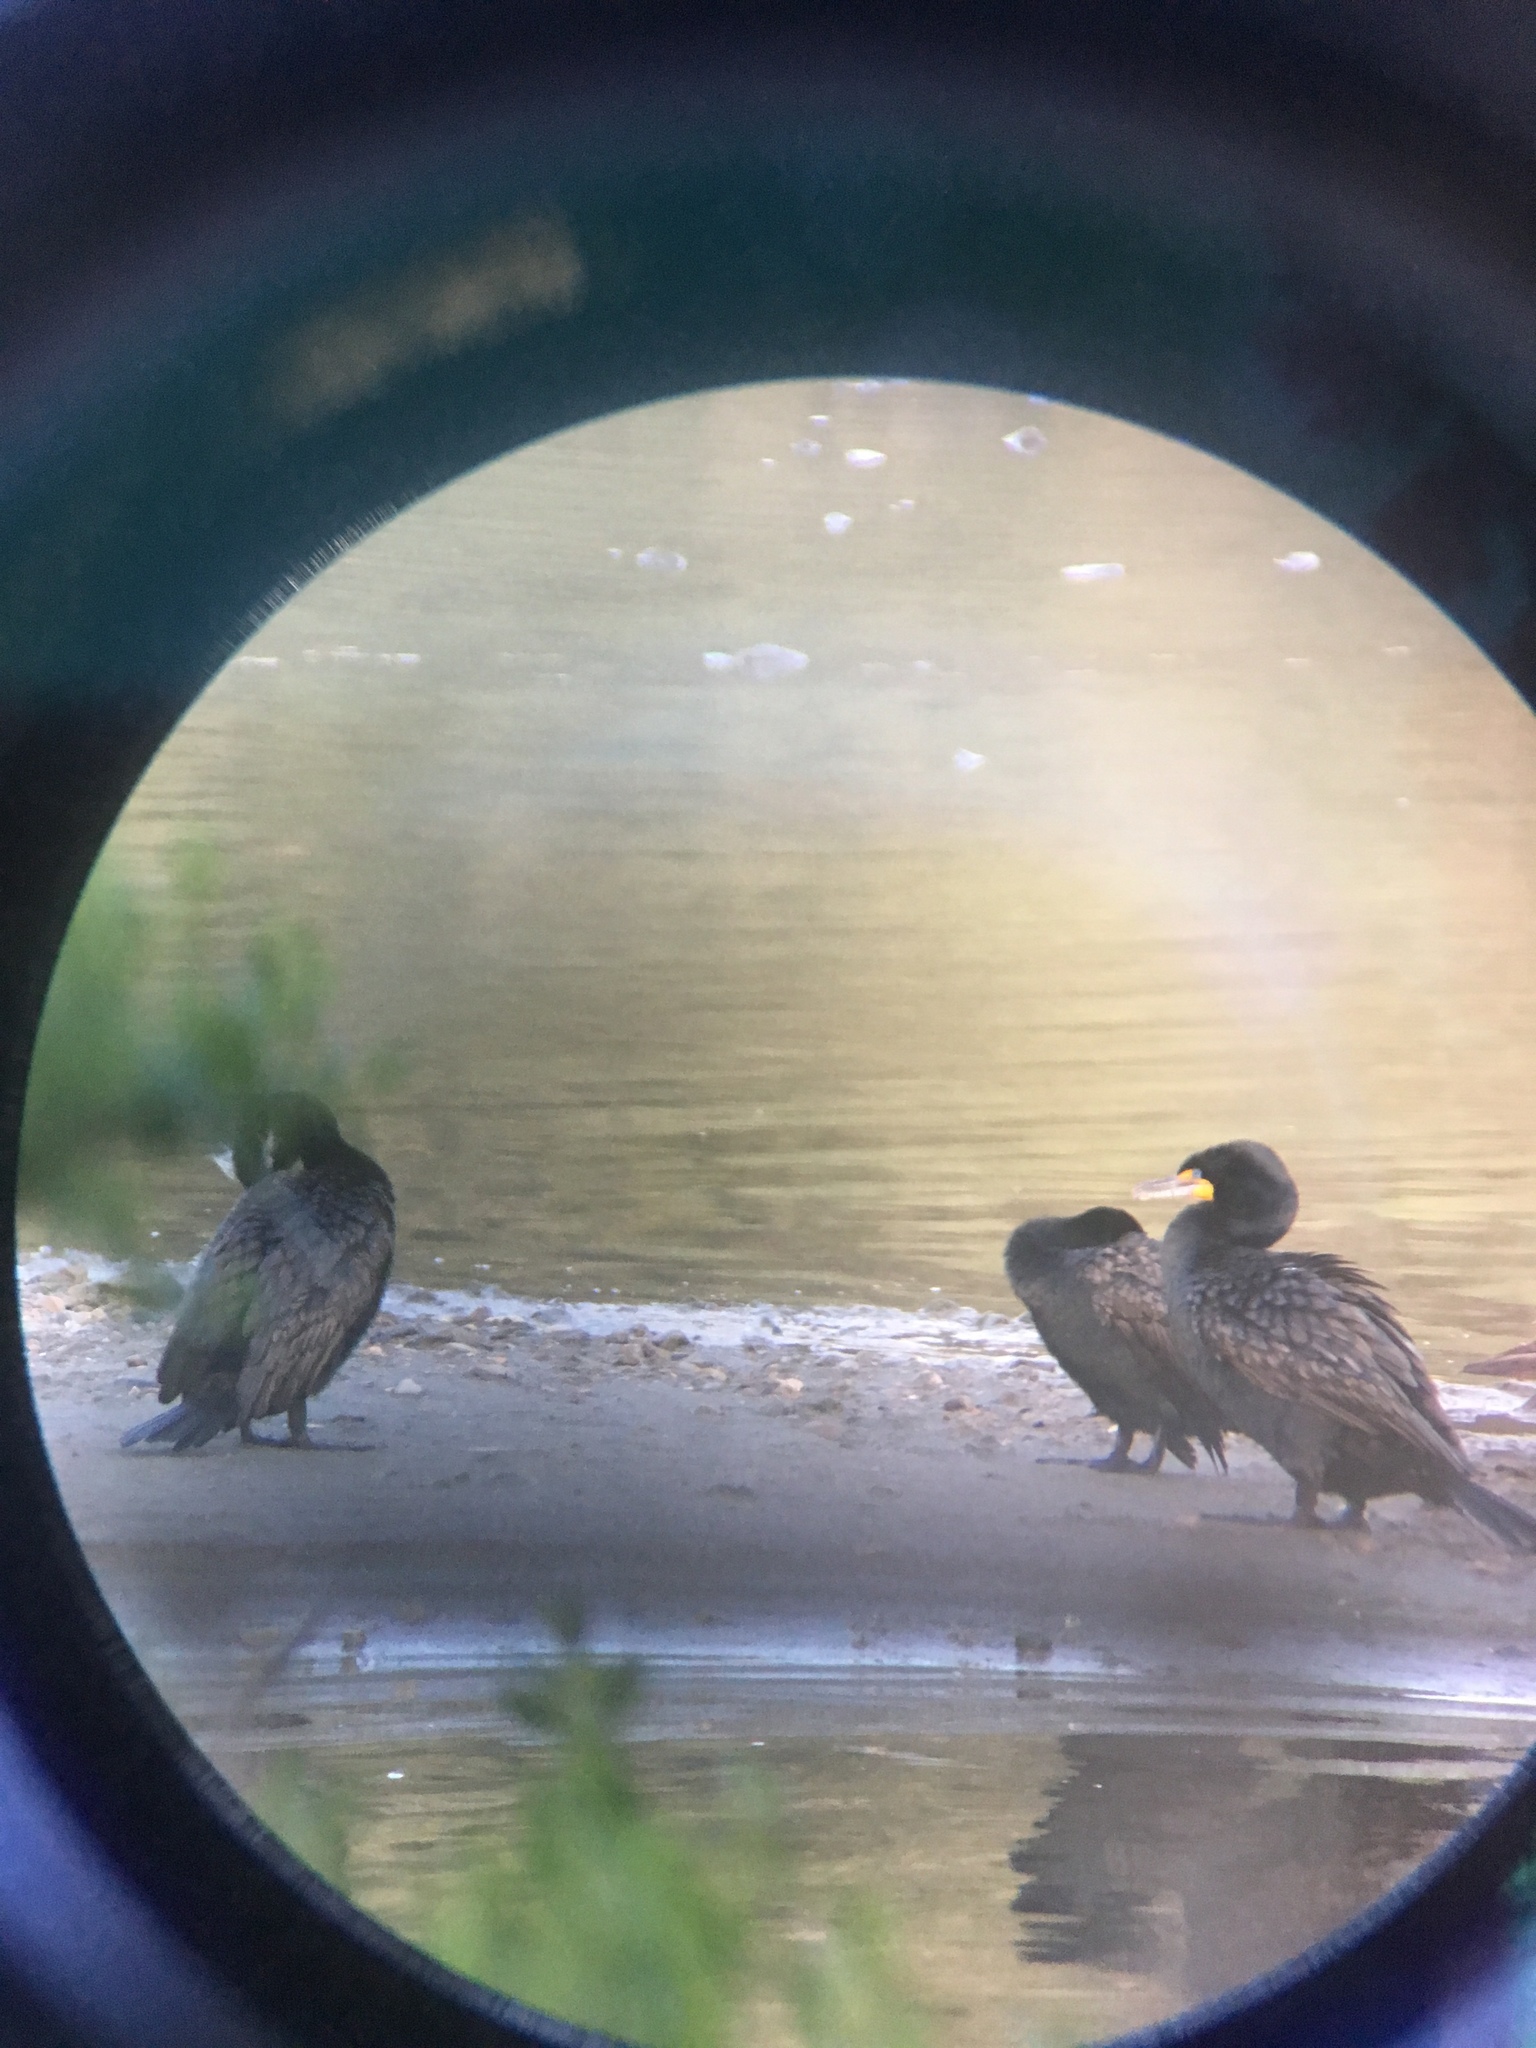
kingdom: Animalia
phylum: Chordata
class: Aves
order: Suliformes
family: Phalacrocoracidae
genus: Phalacrocorax
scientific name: Phalacrocorax auritus
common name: Double-crested cormorant
